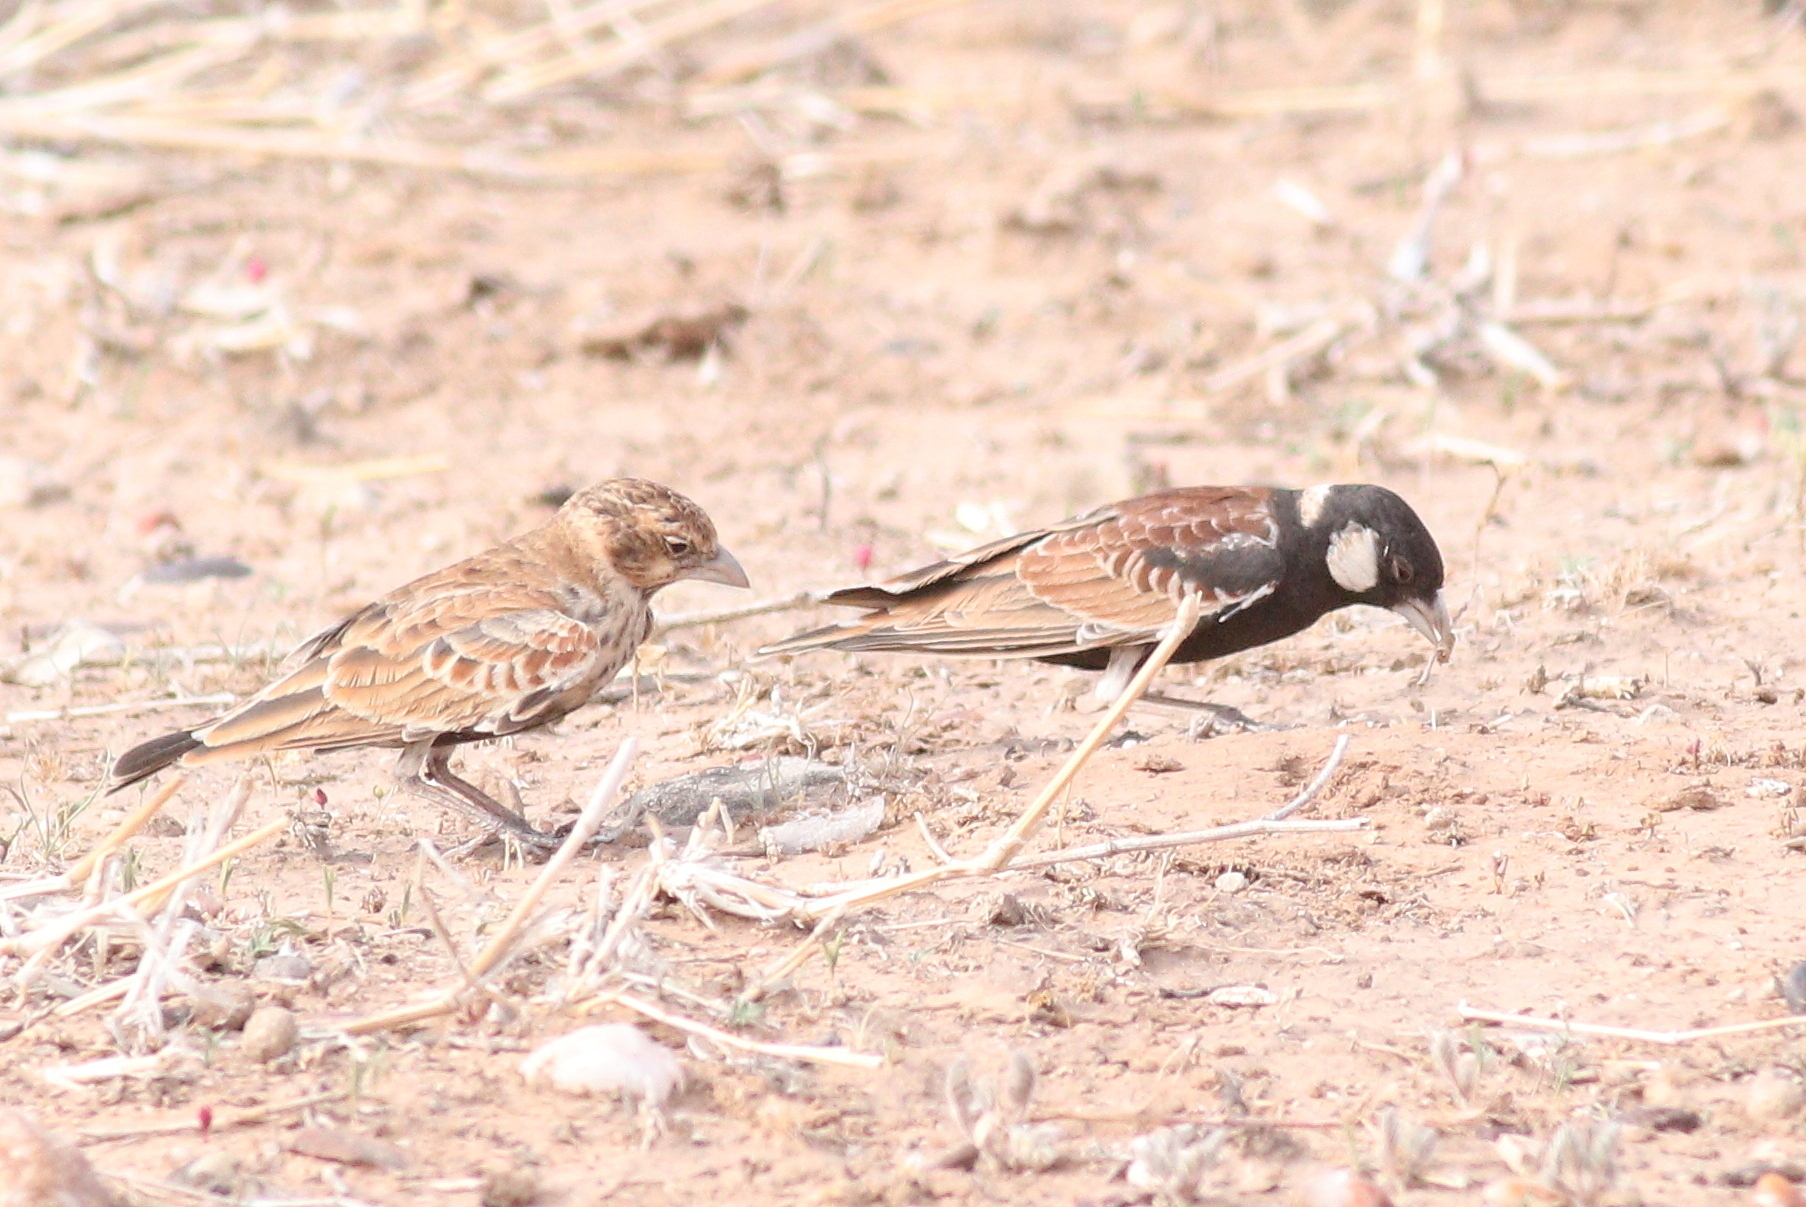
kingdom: Animalia
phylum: Chordata
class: Aves
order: Passeriformes
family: Alaudidae
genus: Eremopterix
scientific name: Eremopterix leucotis
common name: Chestnut-backed sparrow-lark
